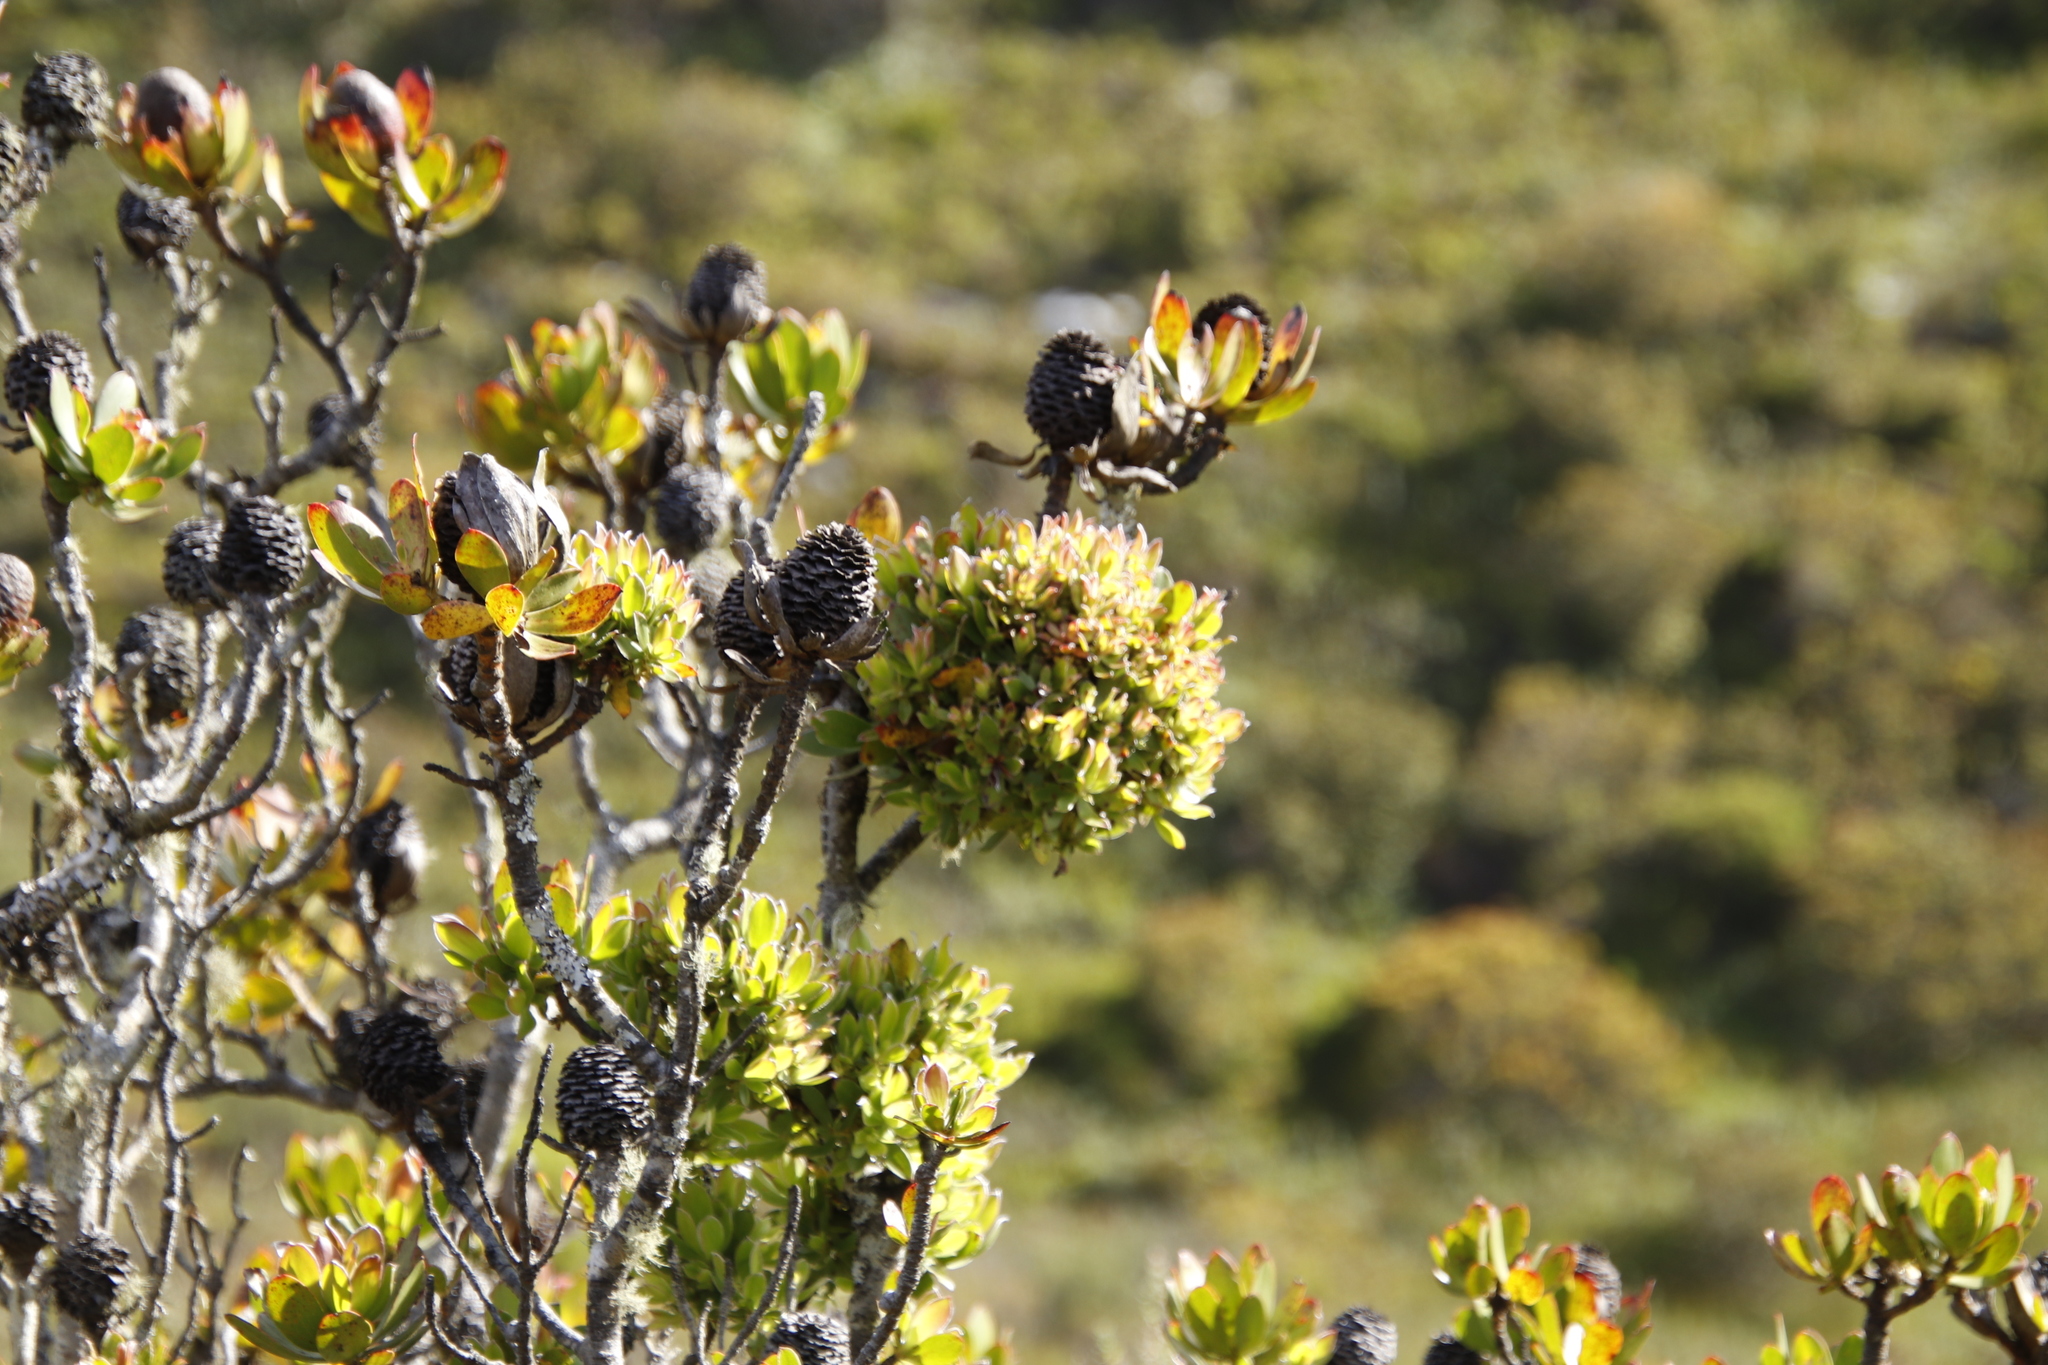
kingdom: Plantae
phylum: Tracheophyta
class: Magnoliopsida
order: Proteales
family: Proteaceae
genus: Leucadendron
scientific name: Leucadendron strobilinum
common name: Mountain rose
